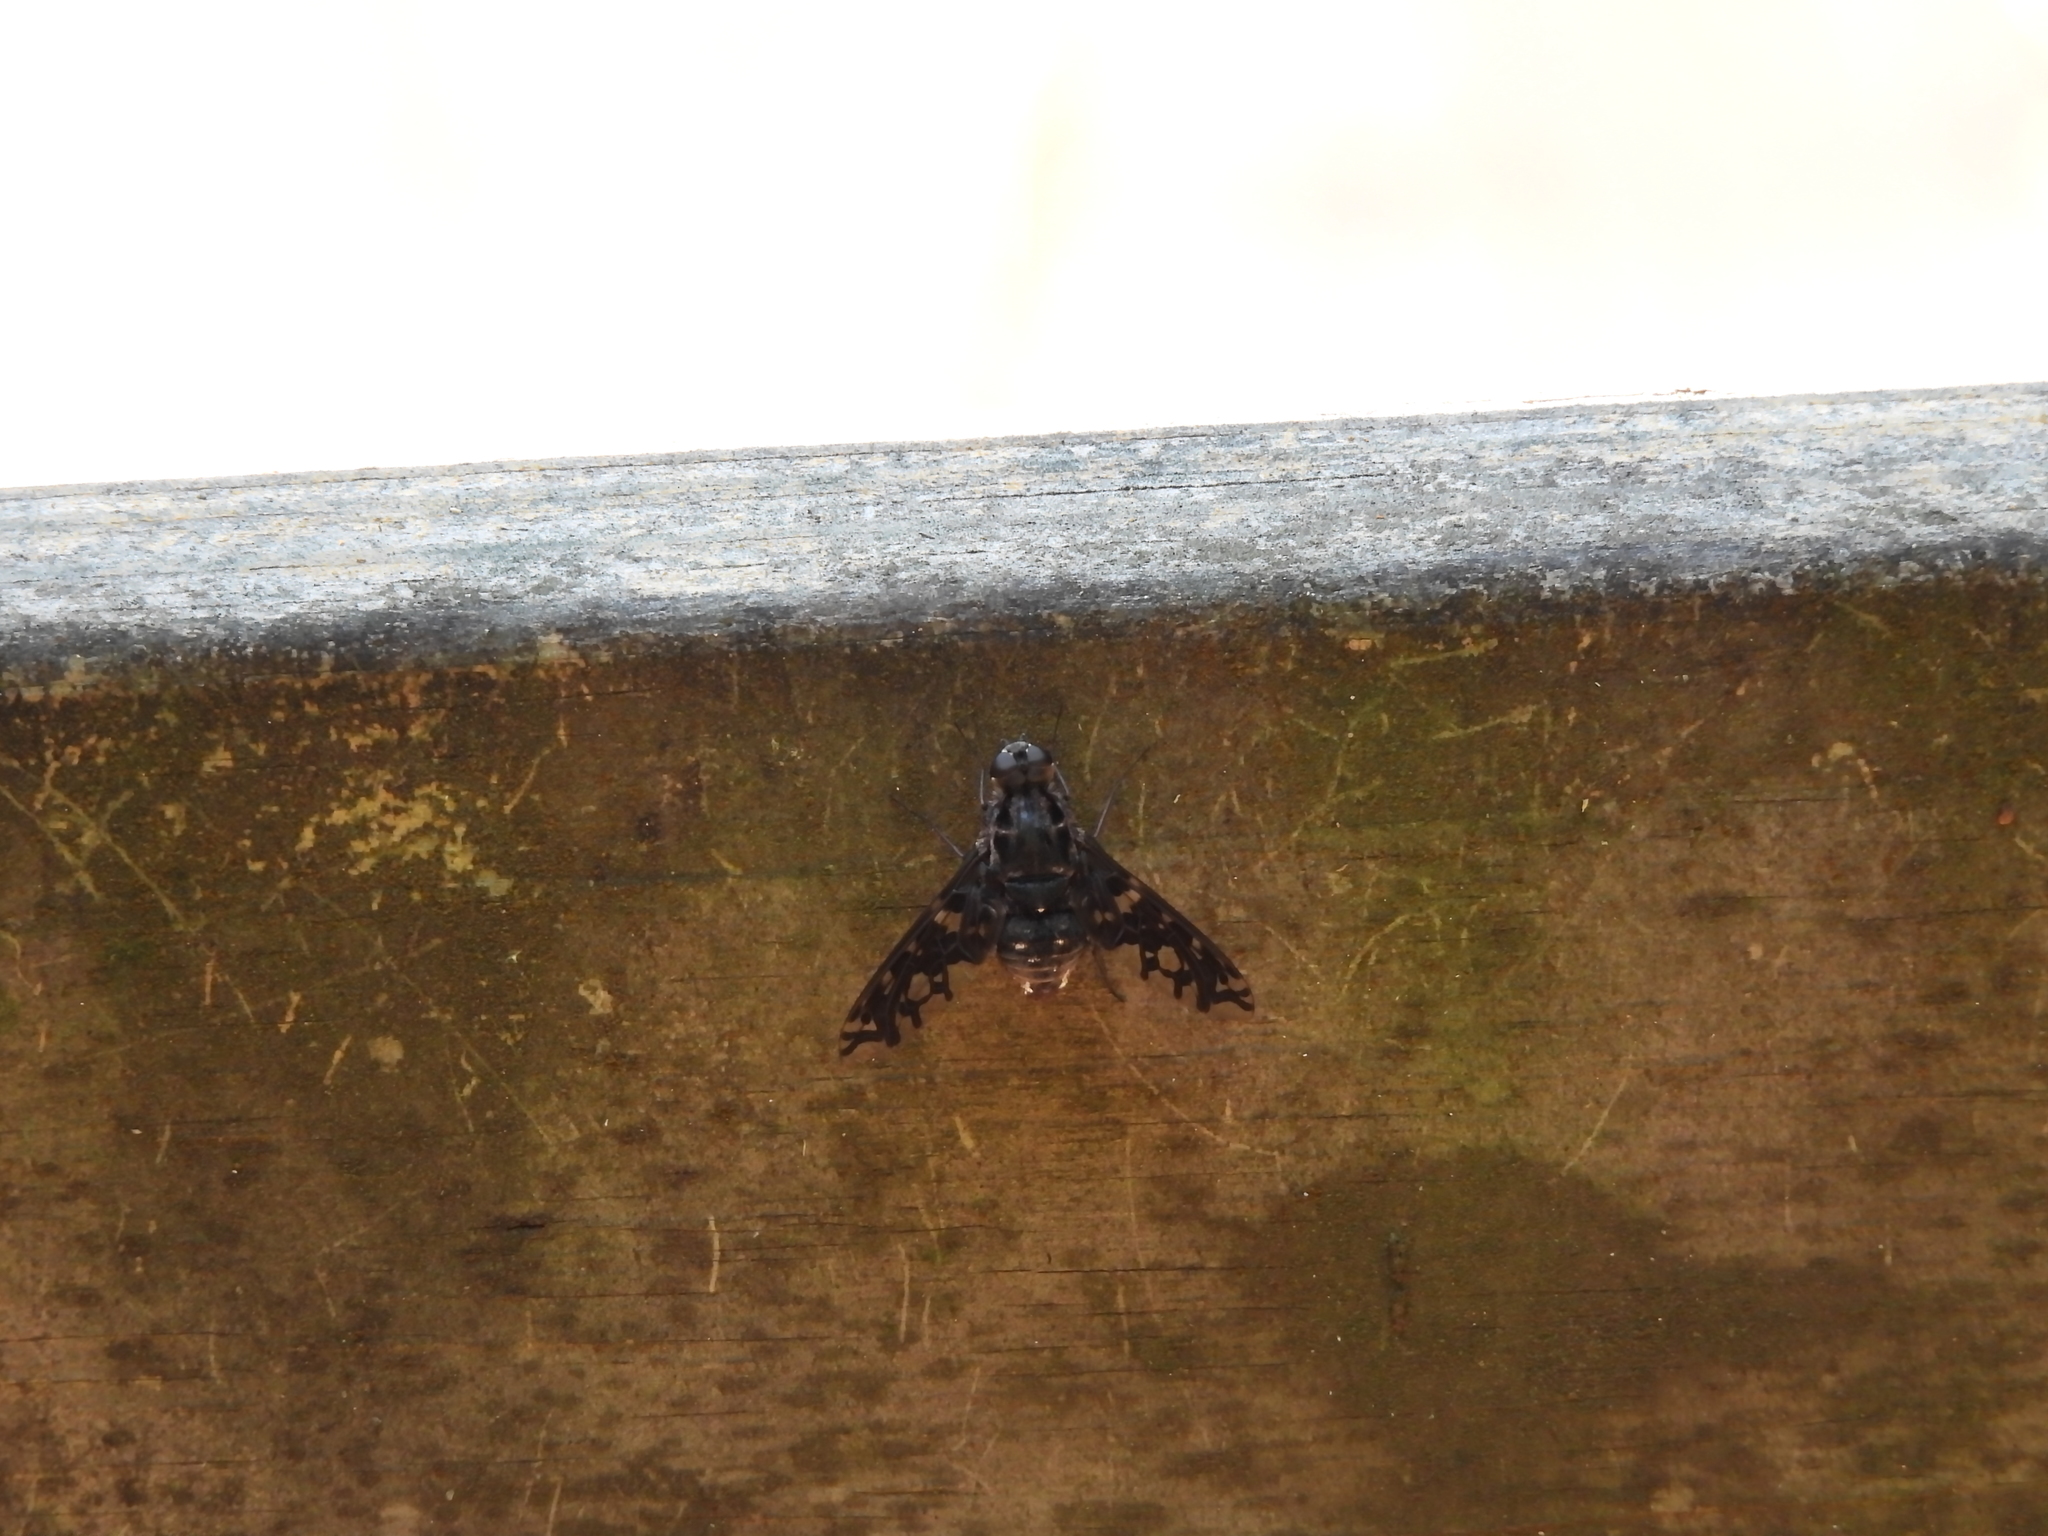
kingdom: Animalia
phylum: Arthropoda
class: Insecta
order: Diptera
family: Bombyliidae
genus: Xenox
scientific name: Xenox tigrinus
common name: Tiger bee fly
